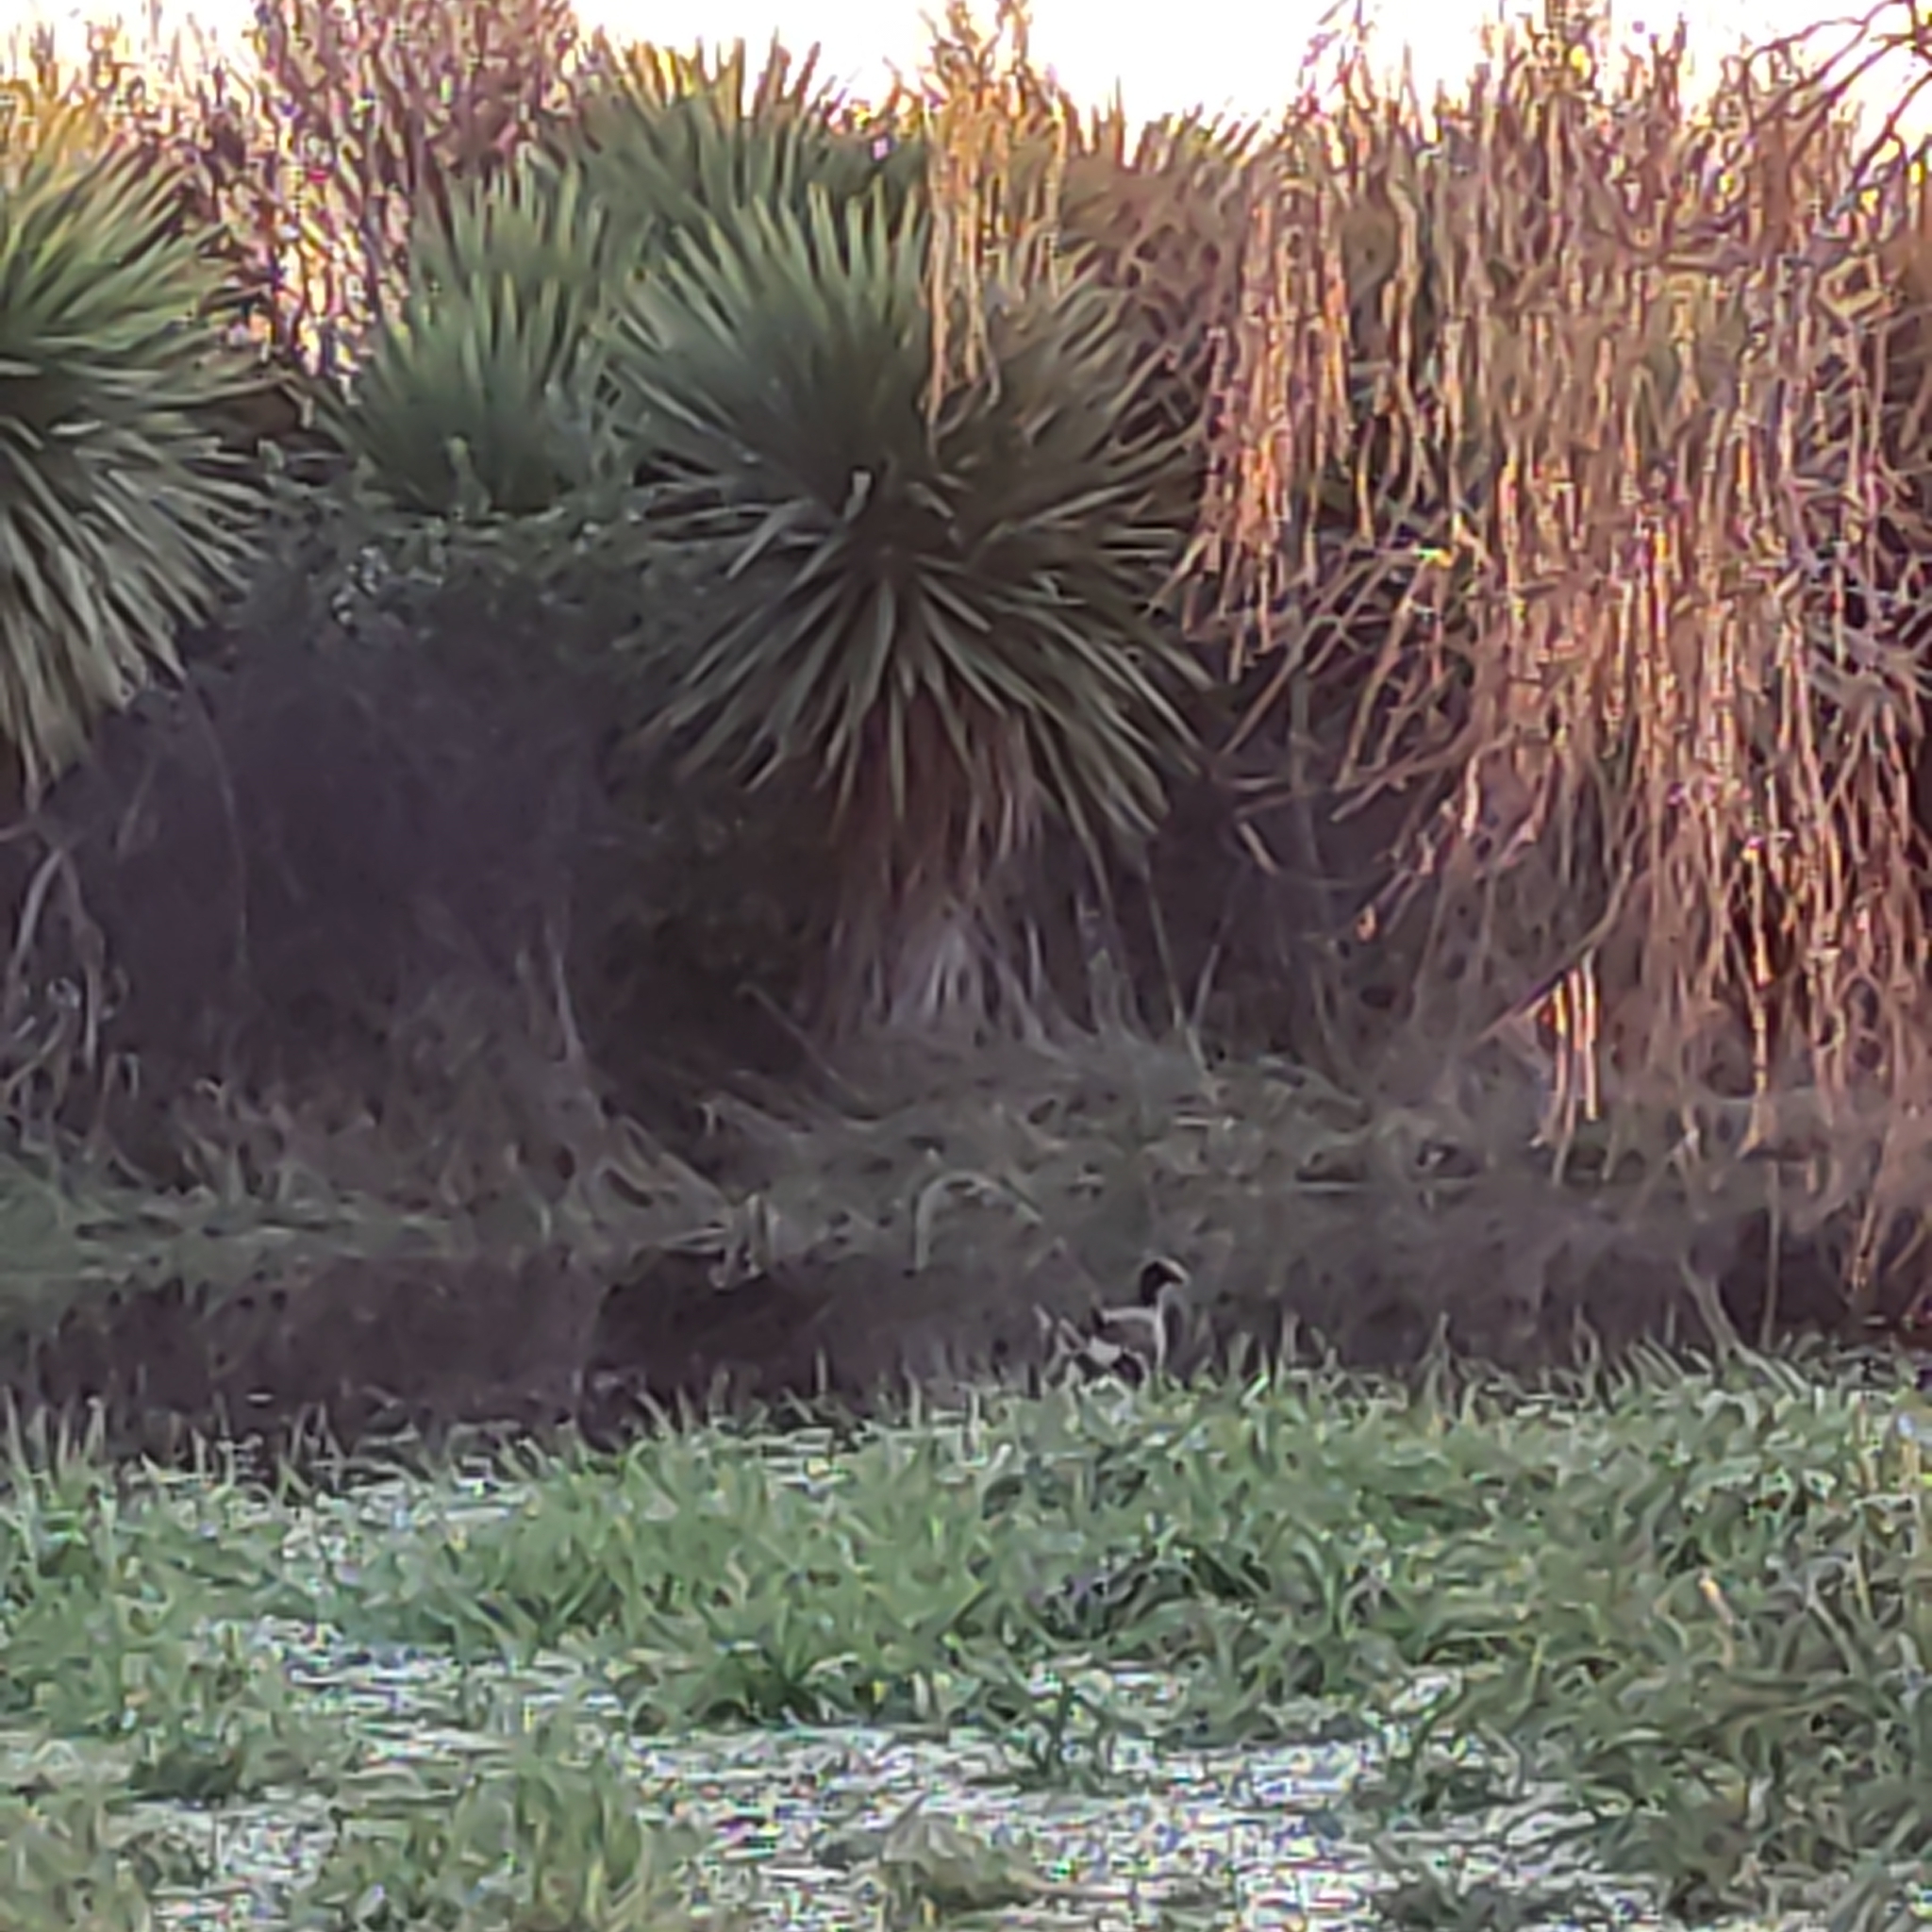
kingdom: Animalia
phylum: Chordata
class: Aves
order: Gruiformes
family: Rallidae
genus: Porphyrio
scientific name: Porphyrio melanotus
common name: Australasian swamphen
